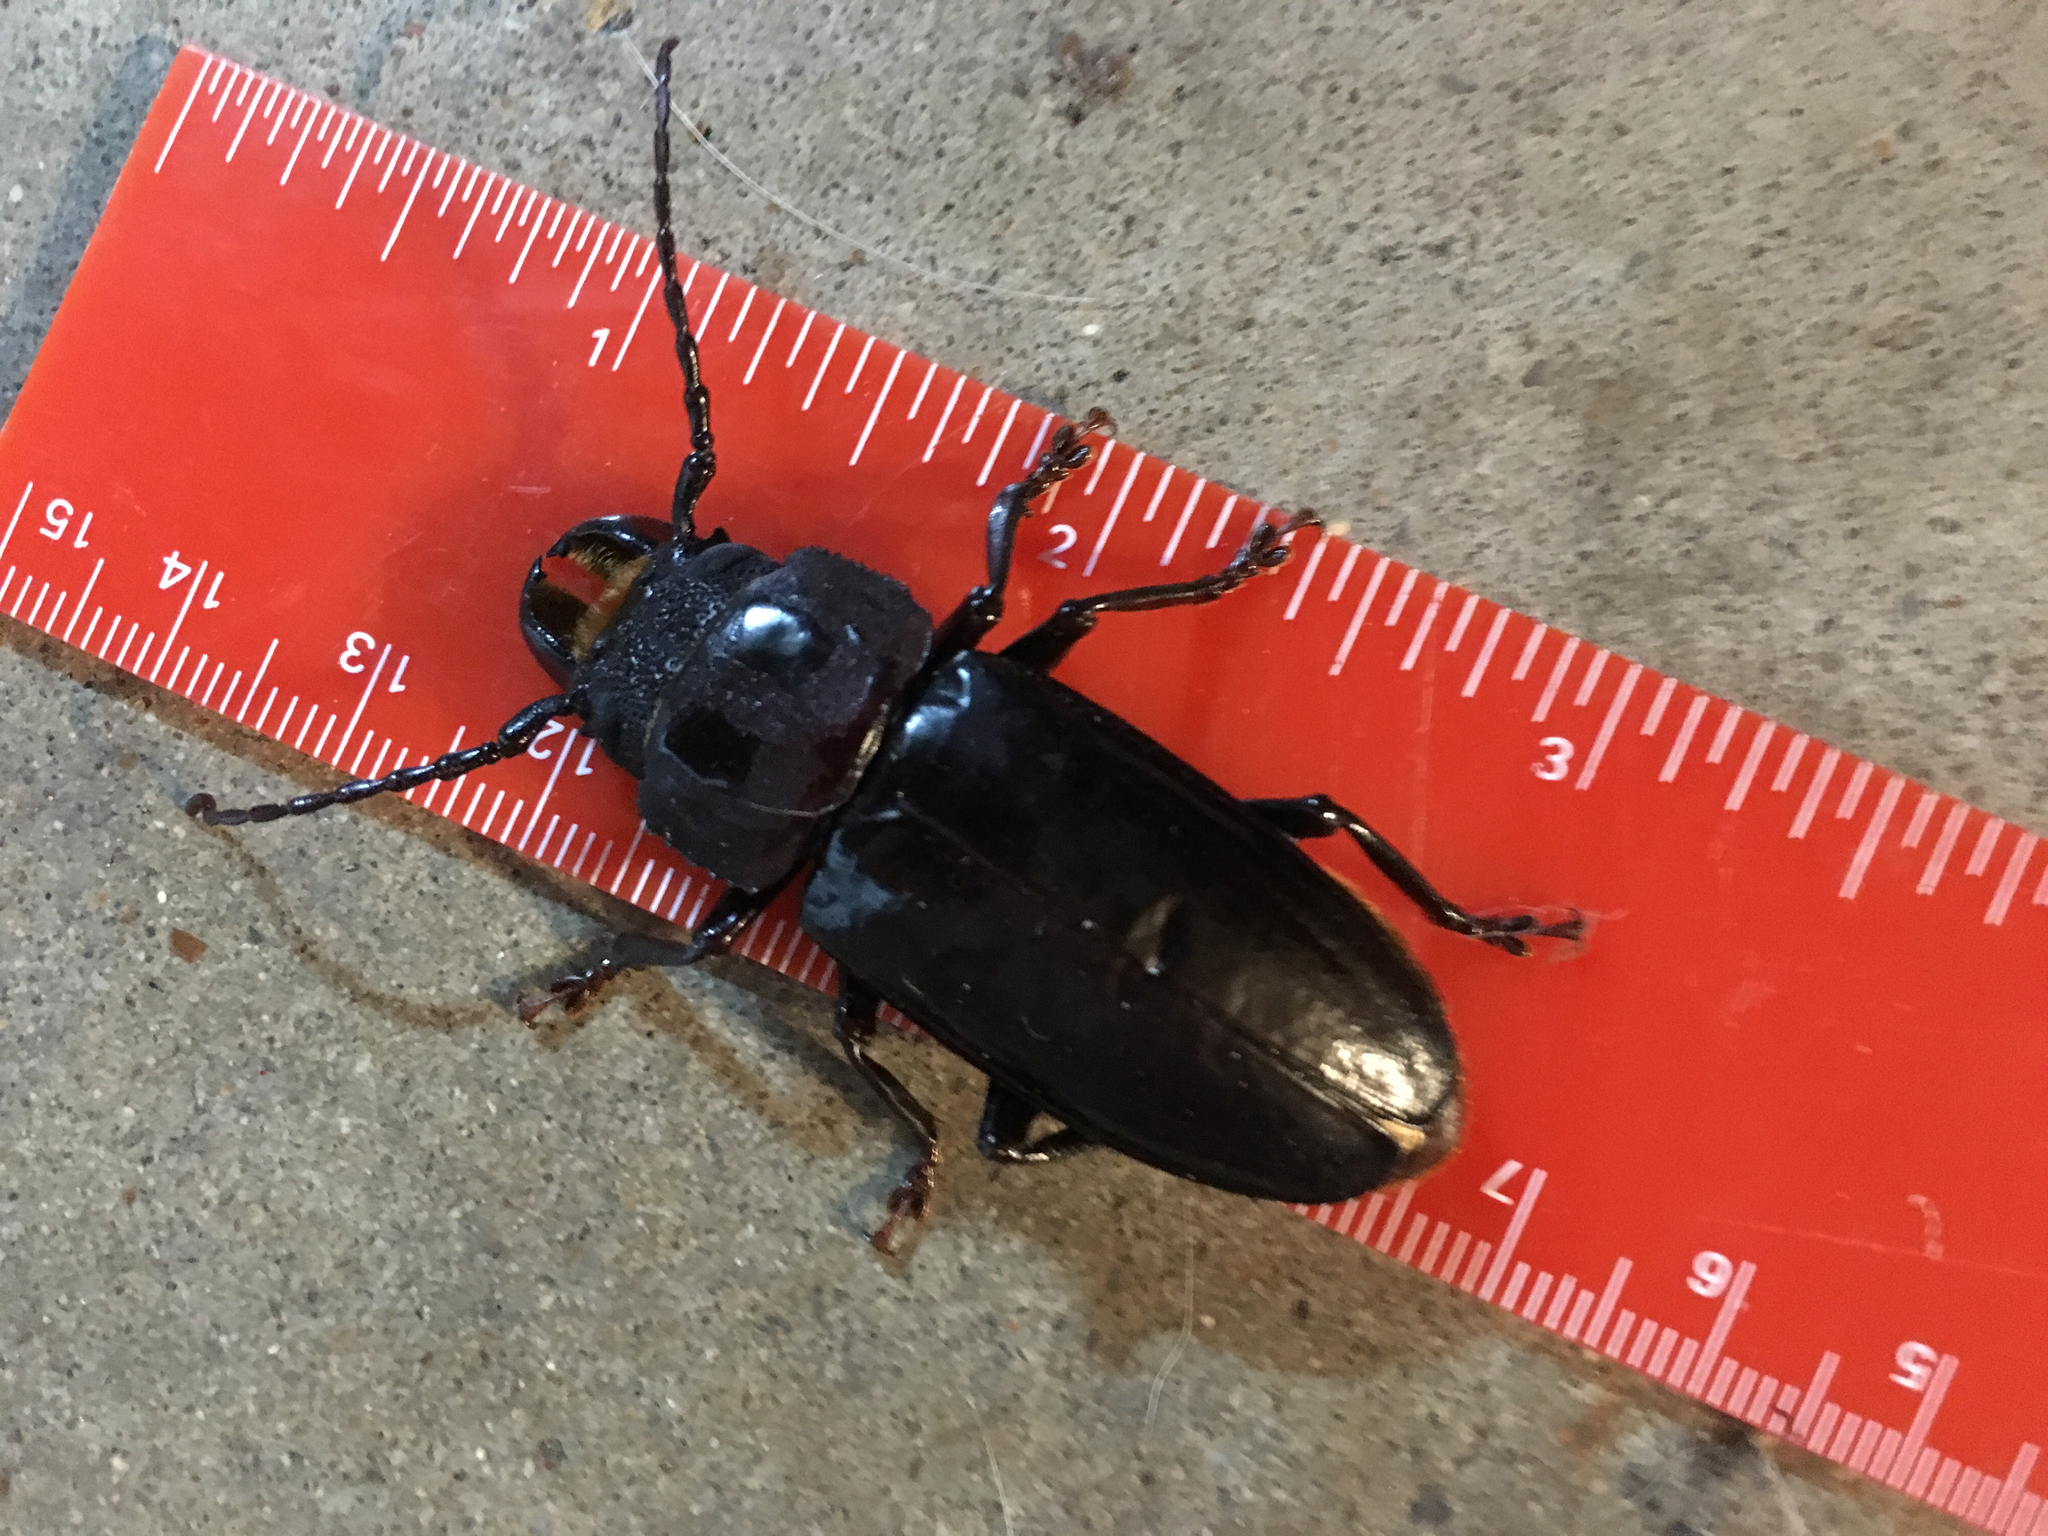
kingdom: Animalia
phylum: Arthropoda
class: Insecta
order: Coleoptera
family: Cerambycidae
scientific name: Cerambycidae
